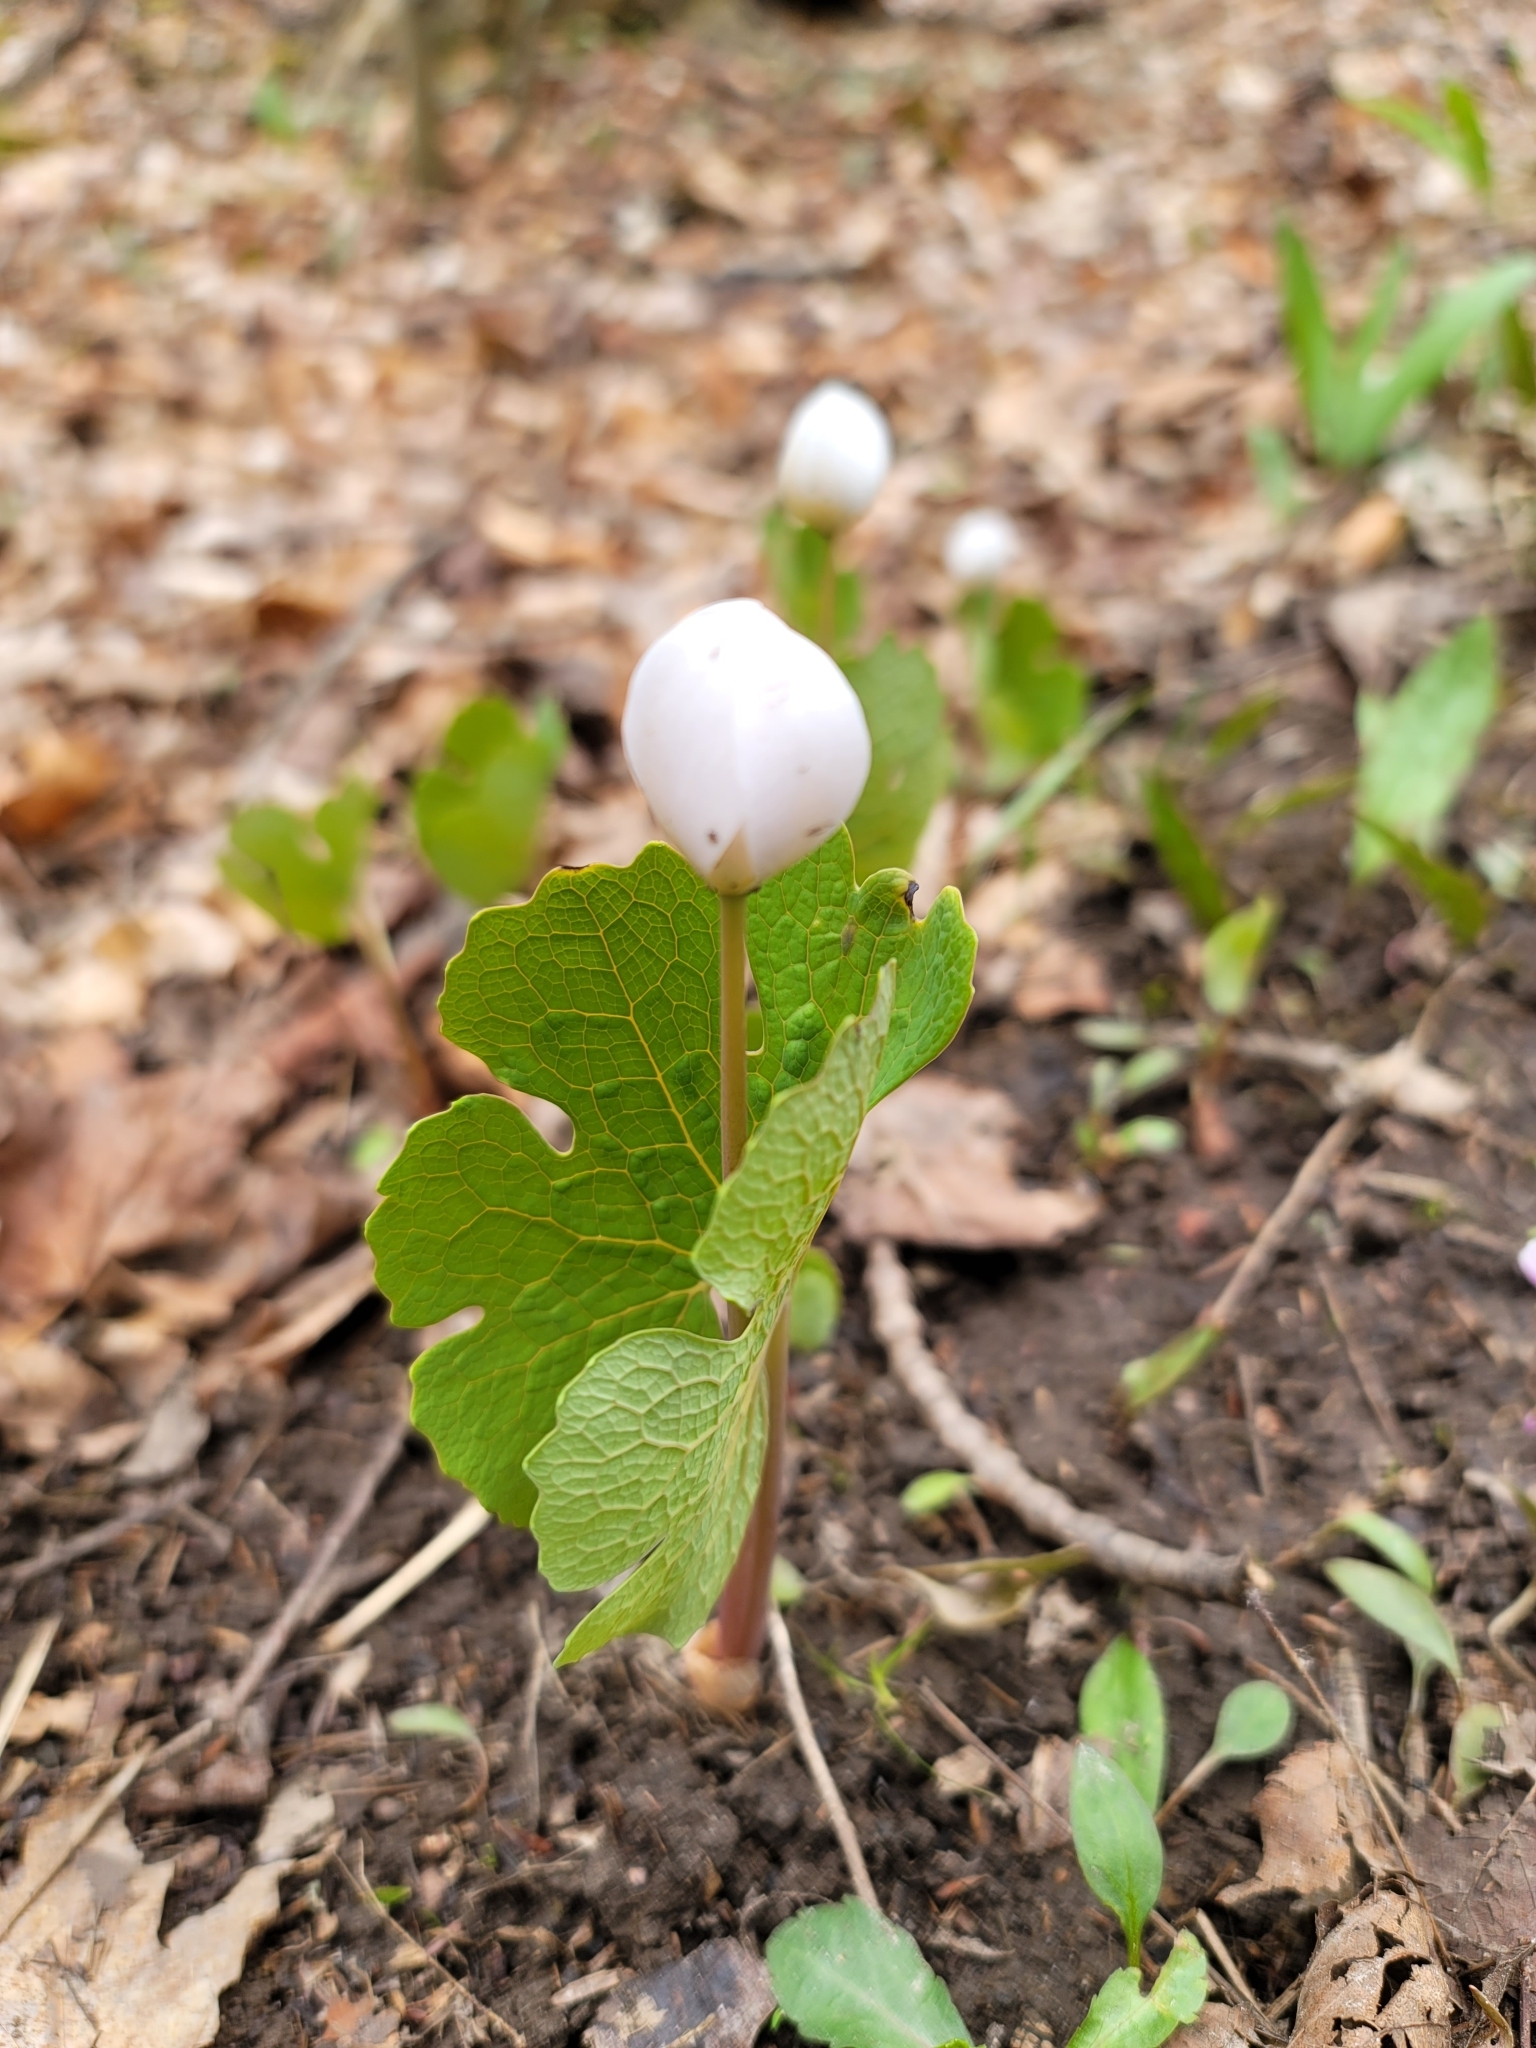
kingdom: Plantae
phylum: Tracheophyta
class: Magnoliopsida
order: Ranunculales
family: Papaveraceae
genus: Sanguinaria
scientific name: Sanguinaria canadensis
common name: Bloodroot
